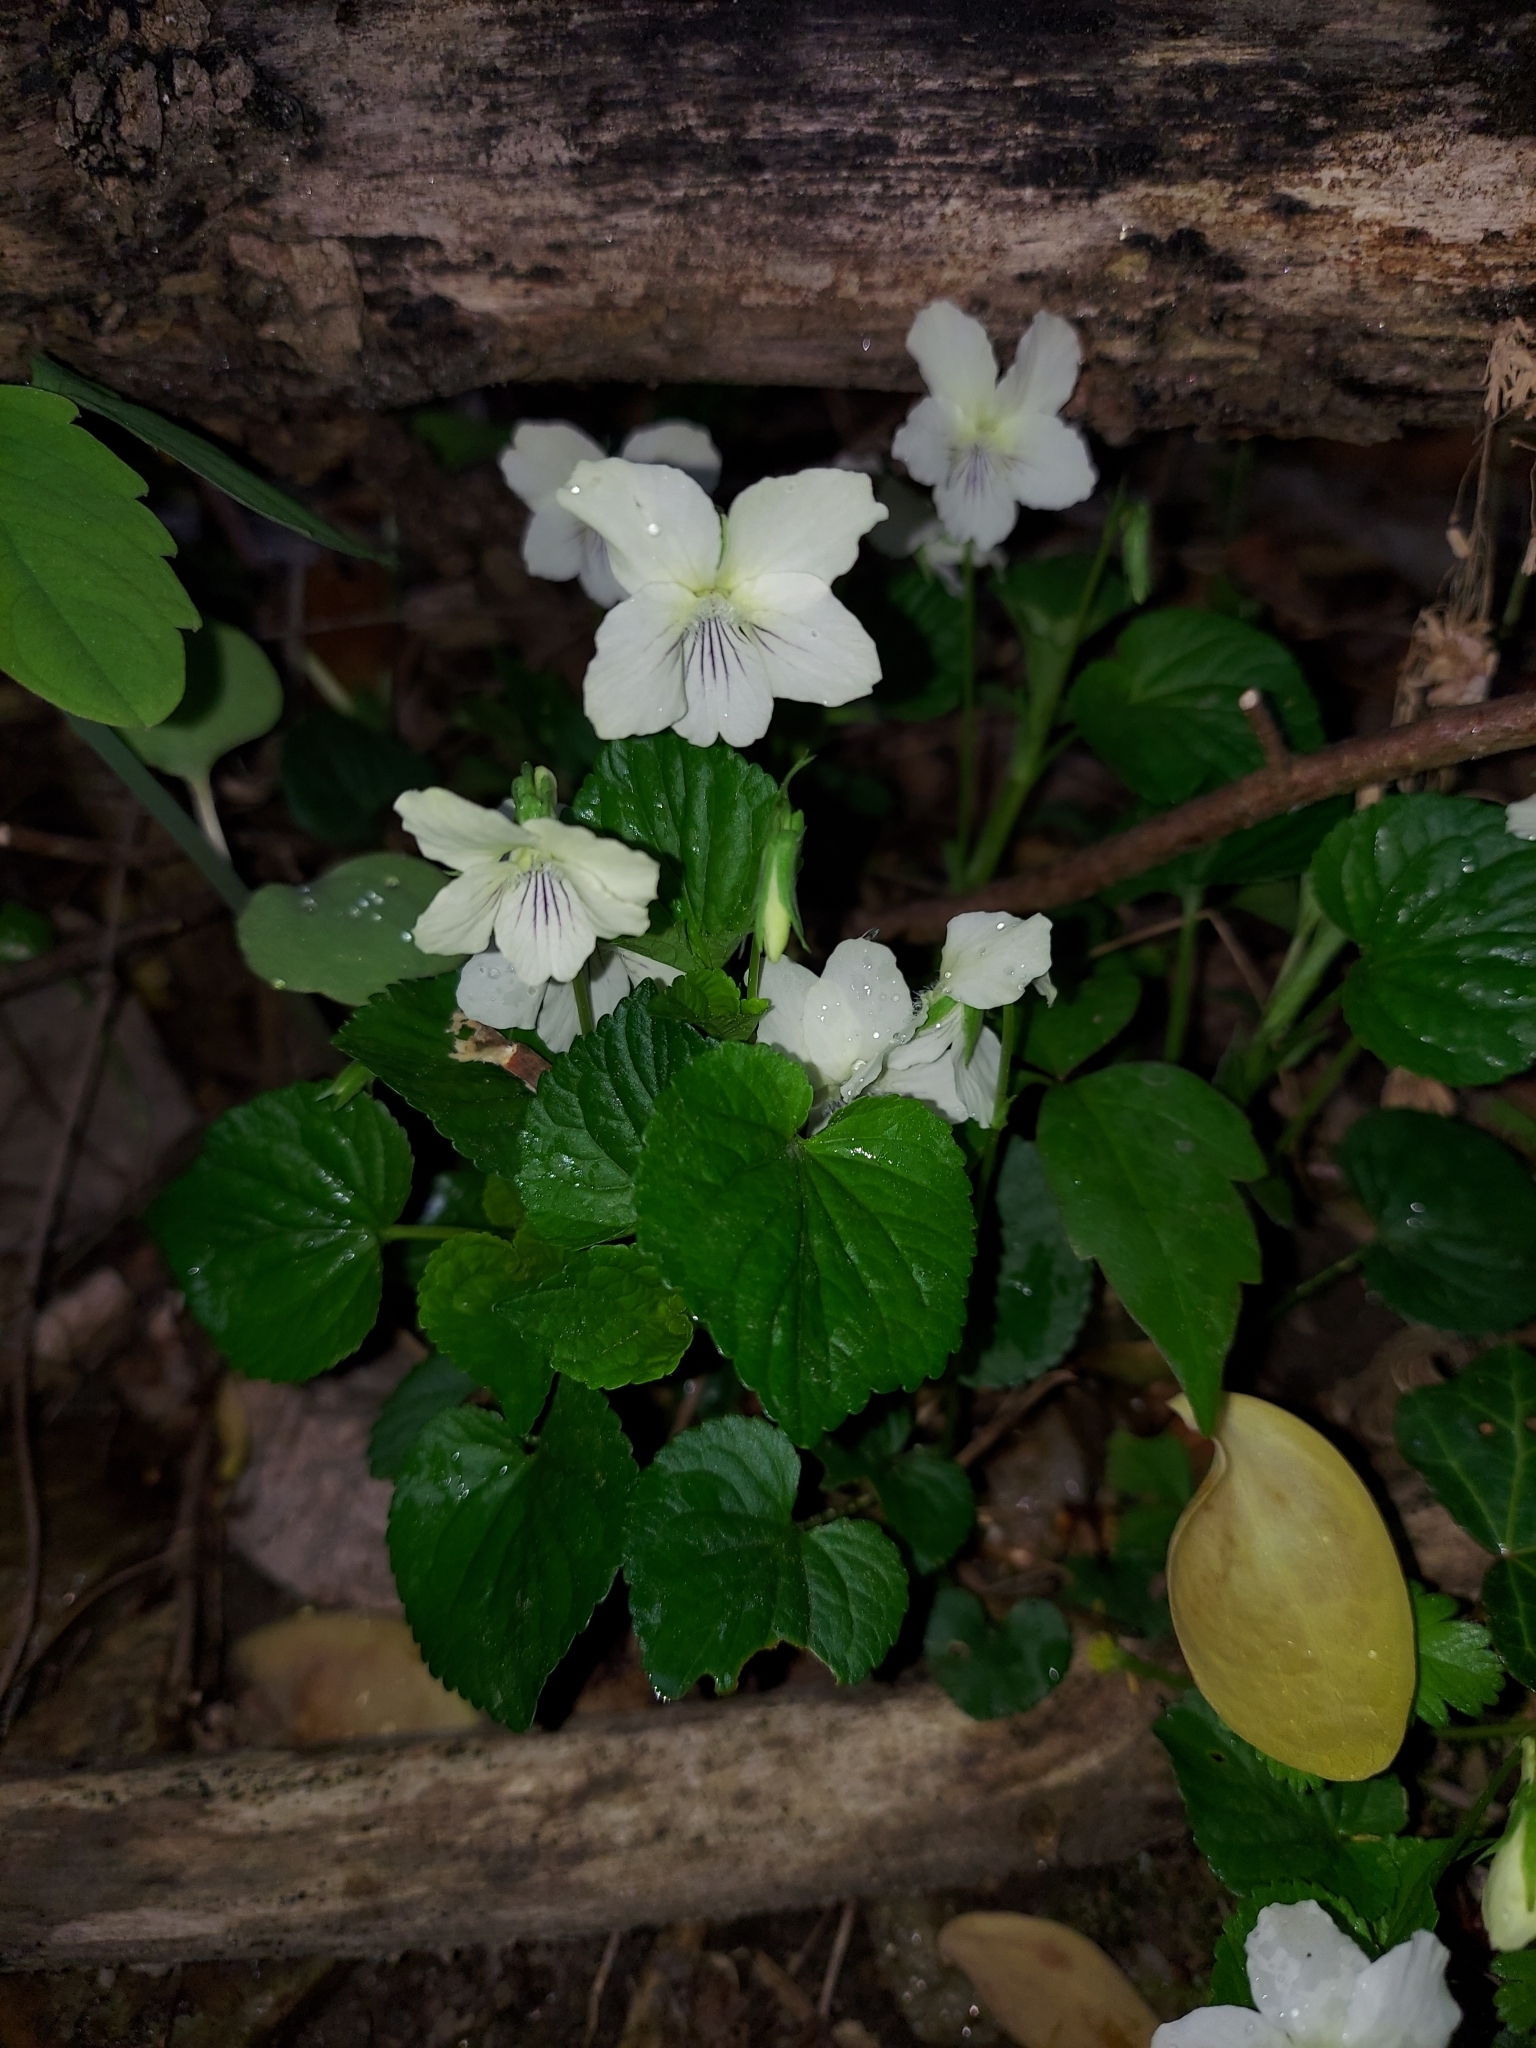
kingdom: Plantae
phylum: Tracheophyta
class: Magnoliopsida
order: Malpighiales
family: Violaceae
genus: Viola
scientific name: Viola striata
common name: Cream violet
